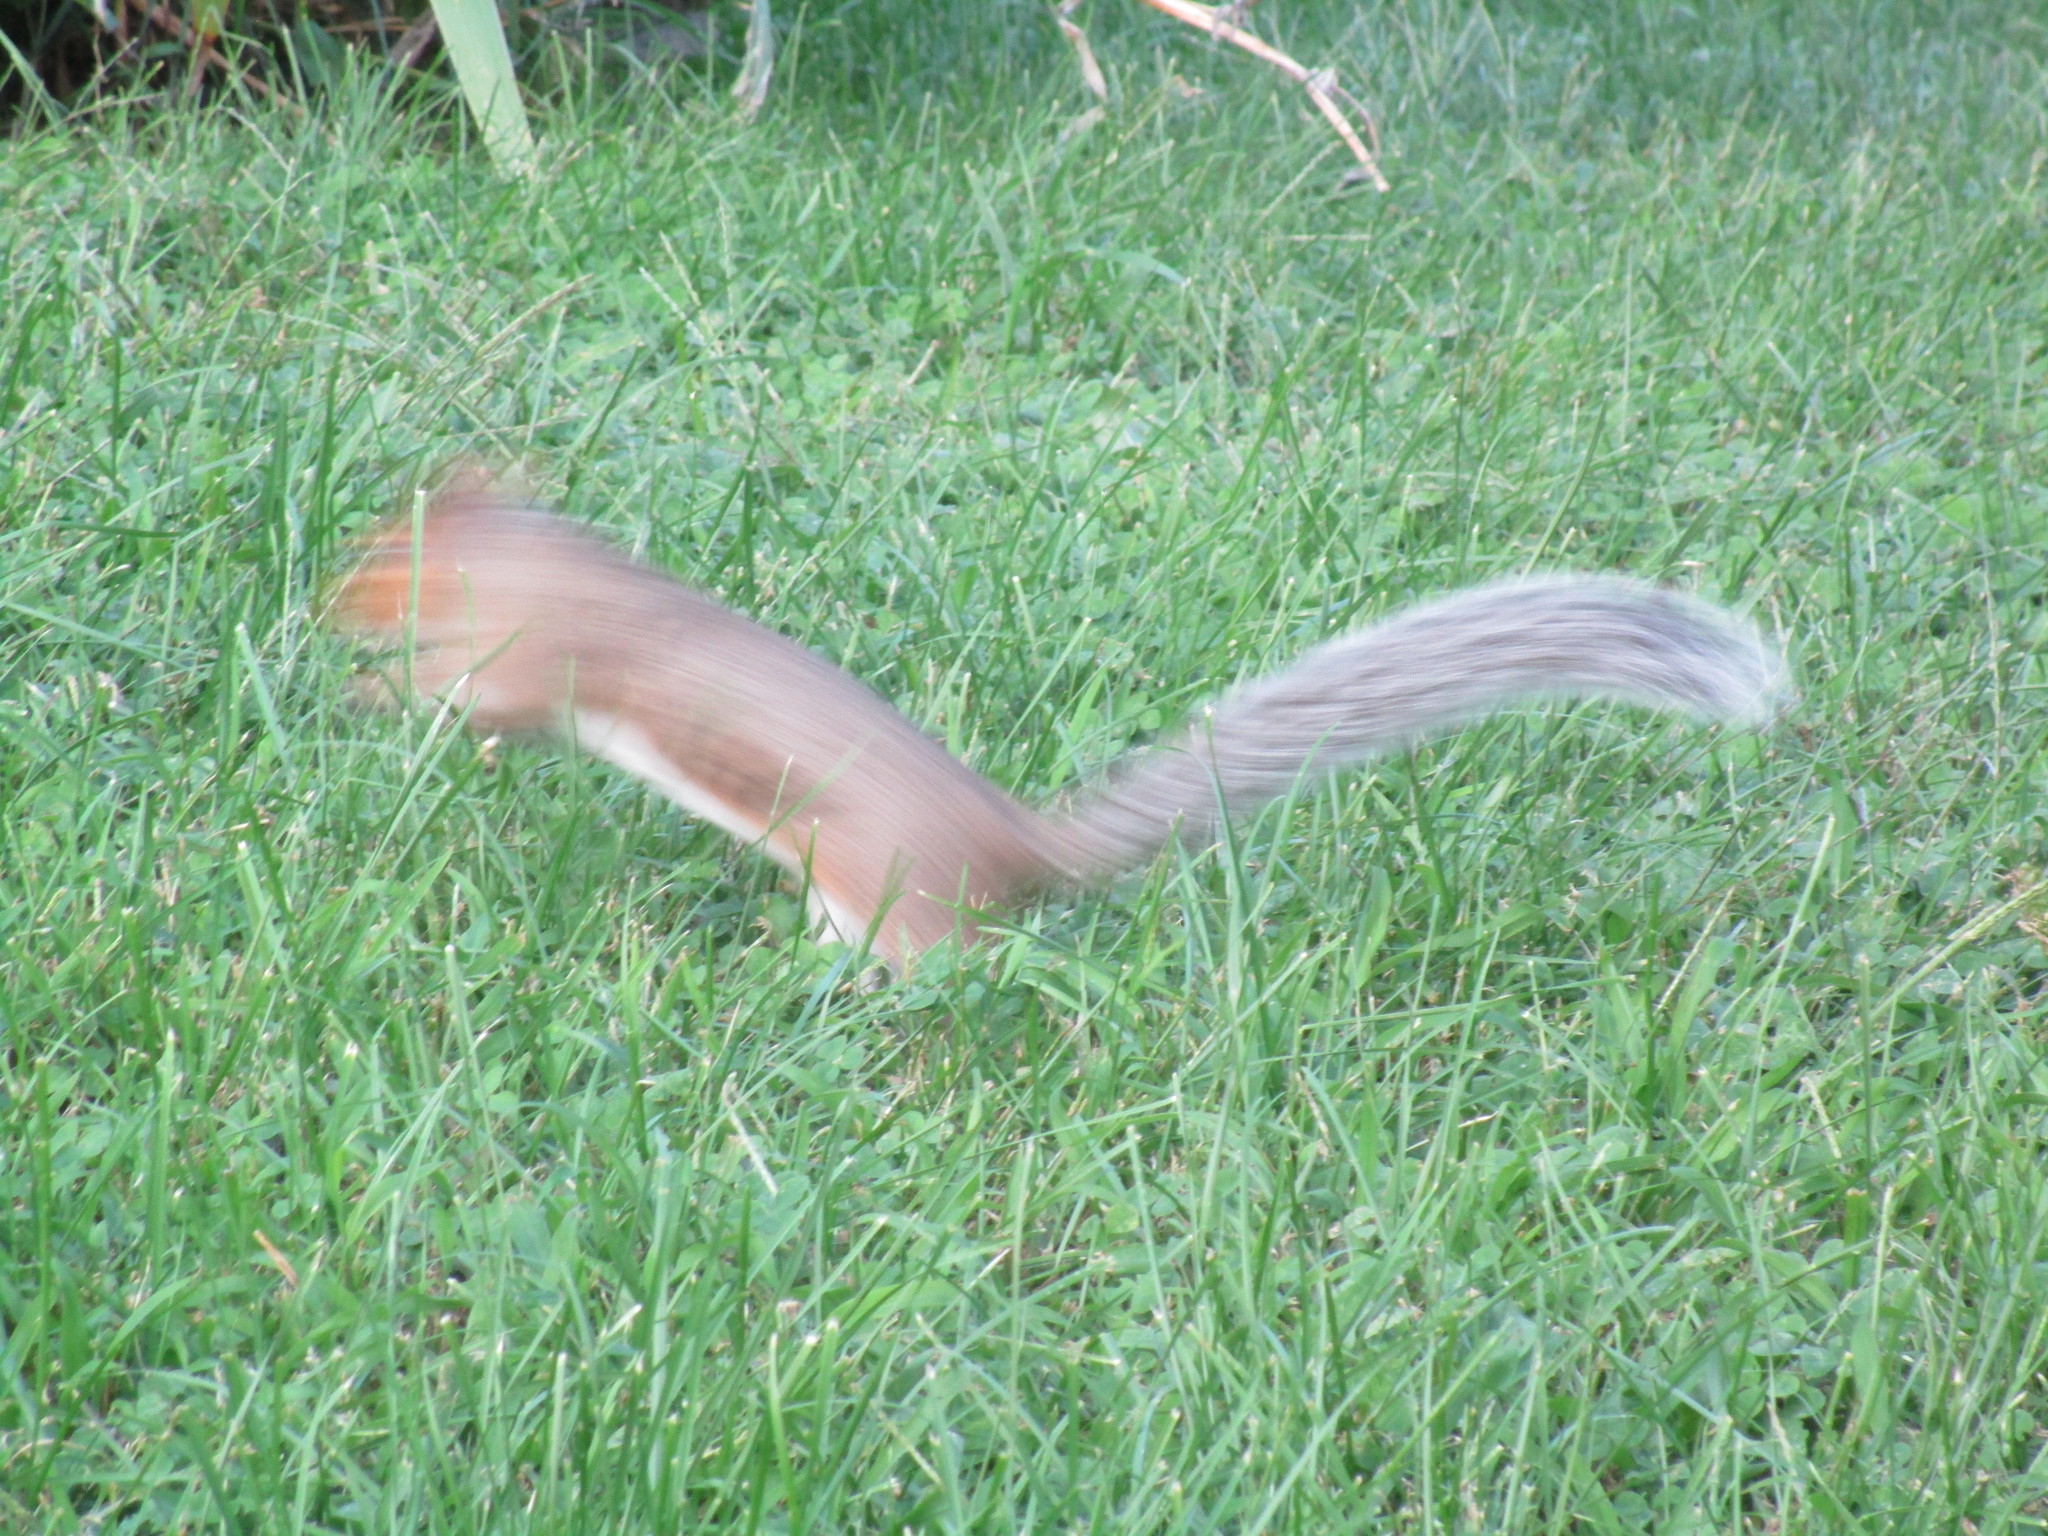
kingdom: Animalia
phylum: Chordata
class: Mammalia
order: Rodentia
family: Sciuridae
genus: Sciurus
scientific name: Sciurus carolinensis
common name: Eastern gray squirrel
